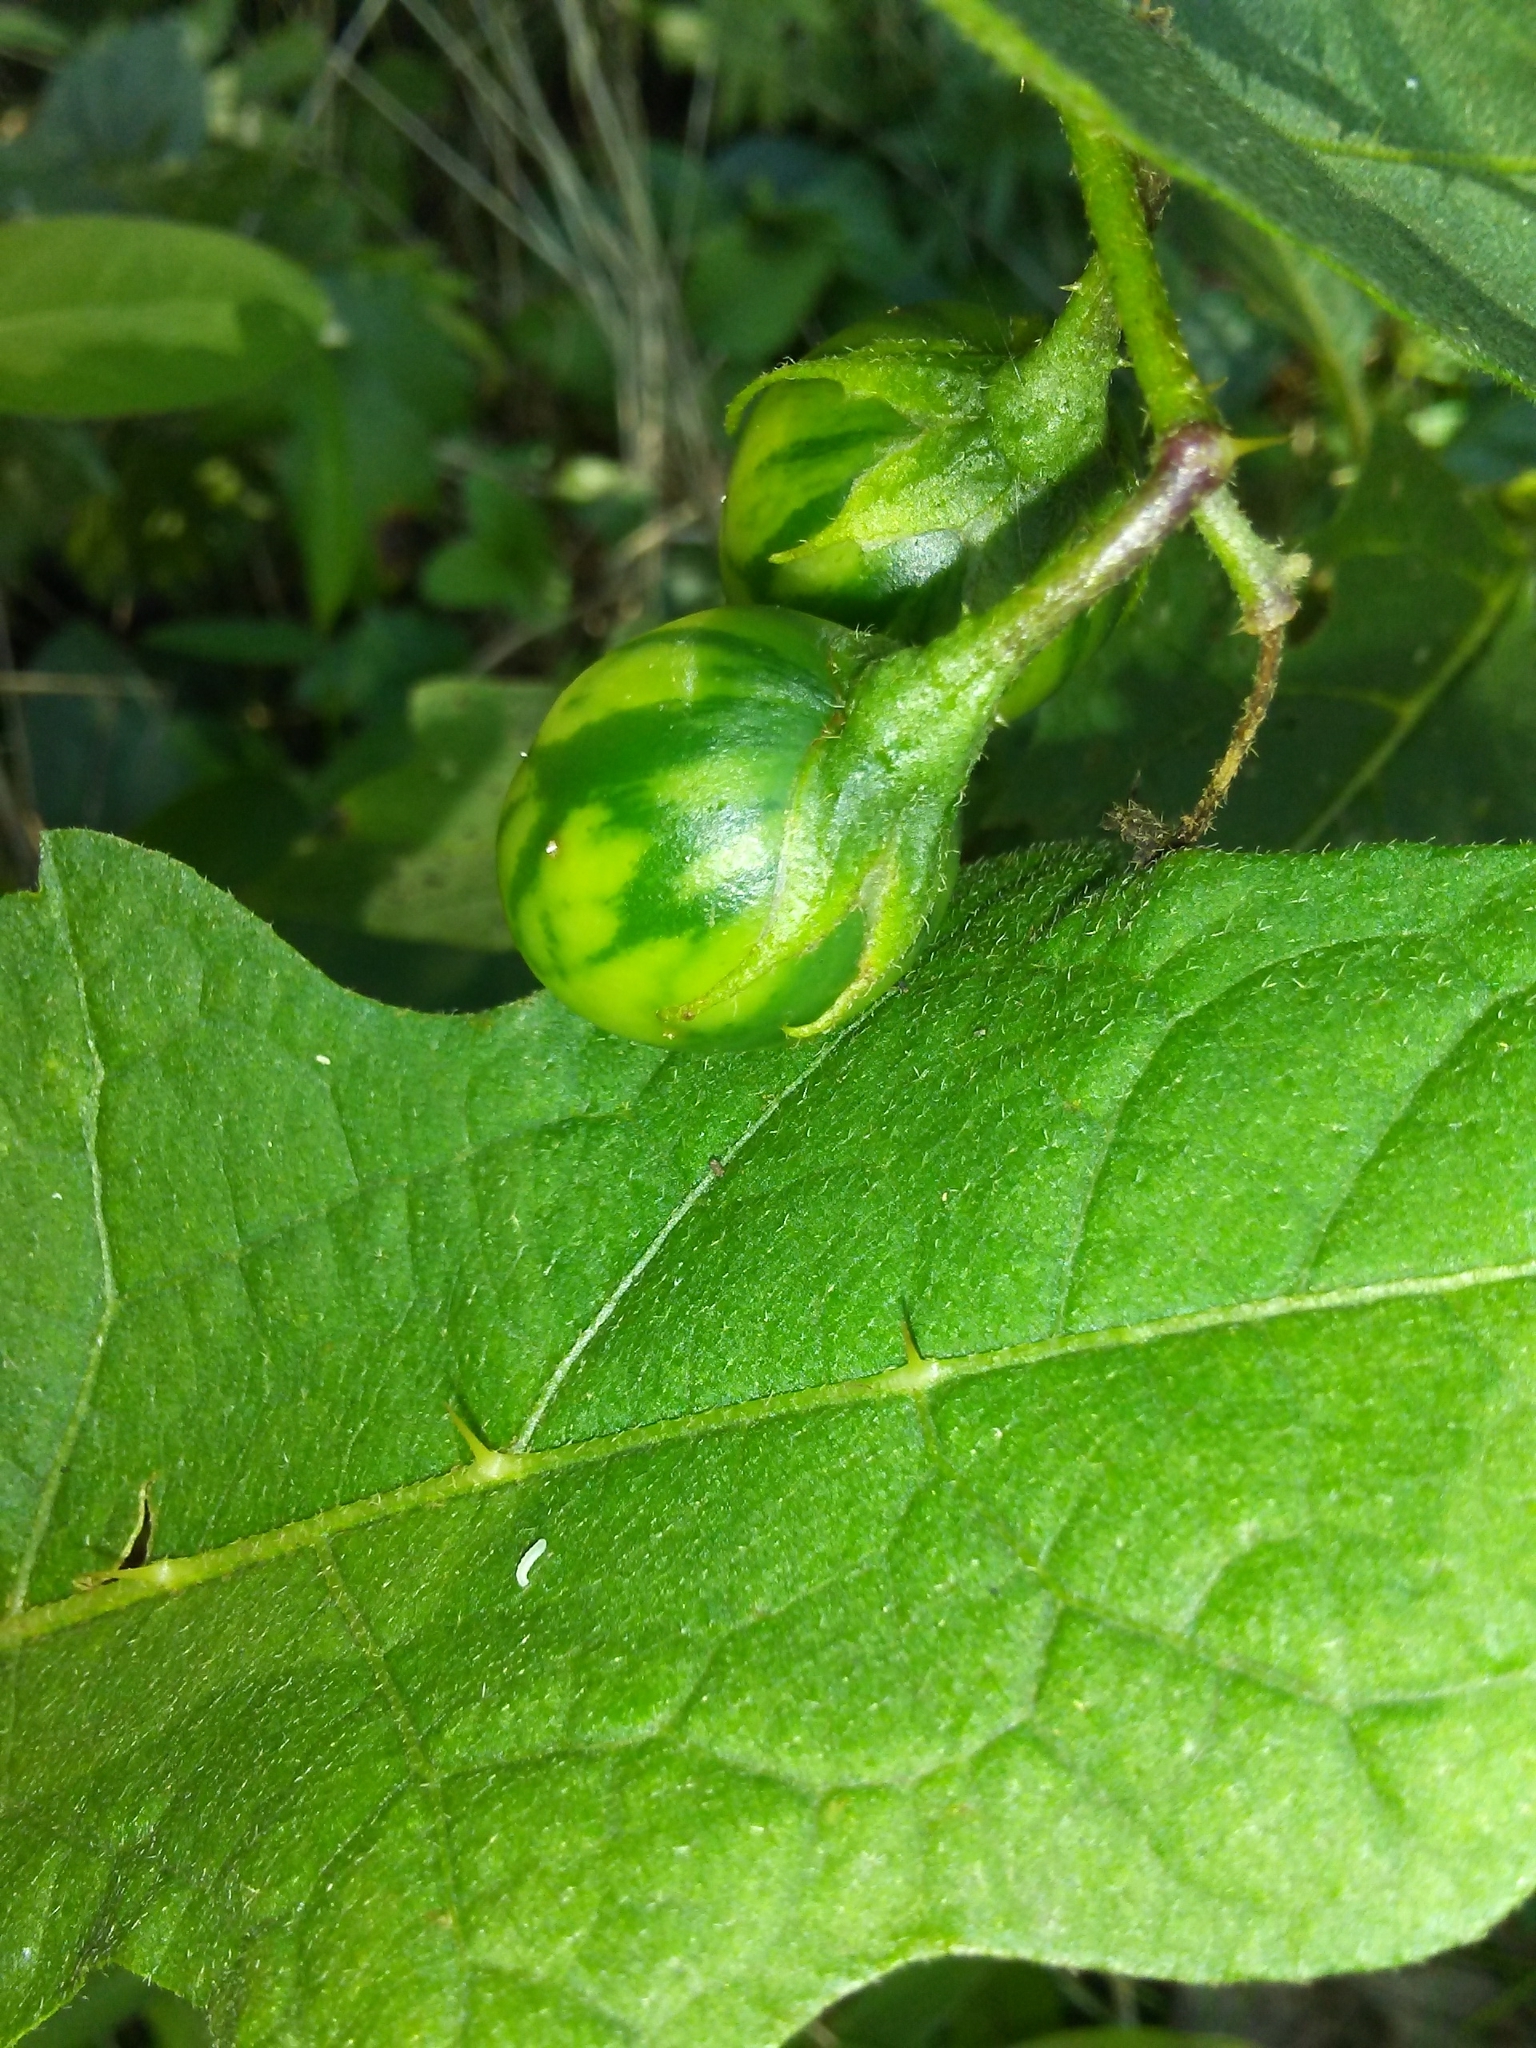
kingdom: Plantae
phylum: Tracheophyta
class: Magnoliopsida
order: Solanales
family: Solanaceae
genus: Solanum
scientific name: Solanum carolinense
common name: Horse-nettle
